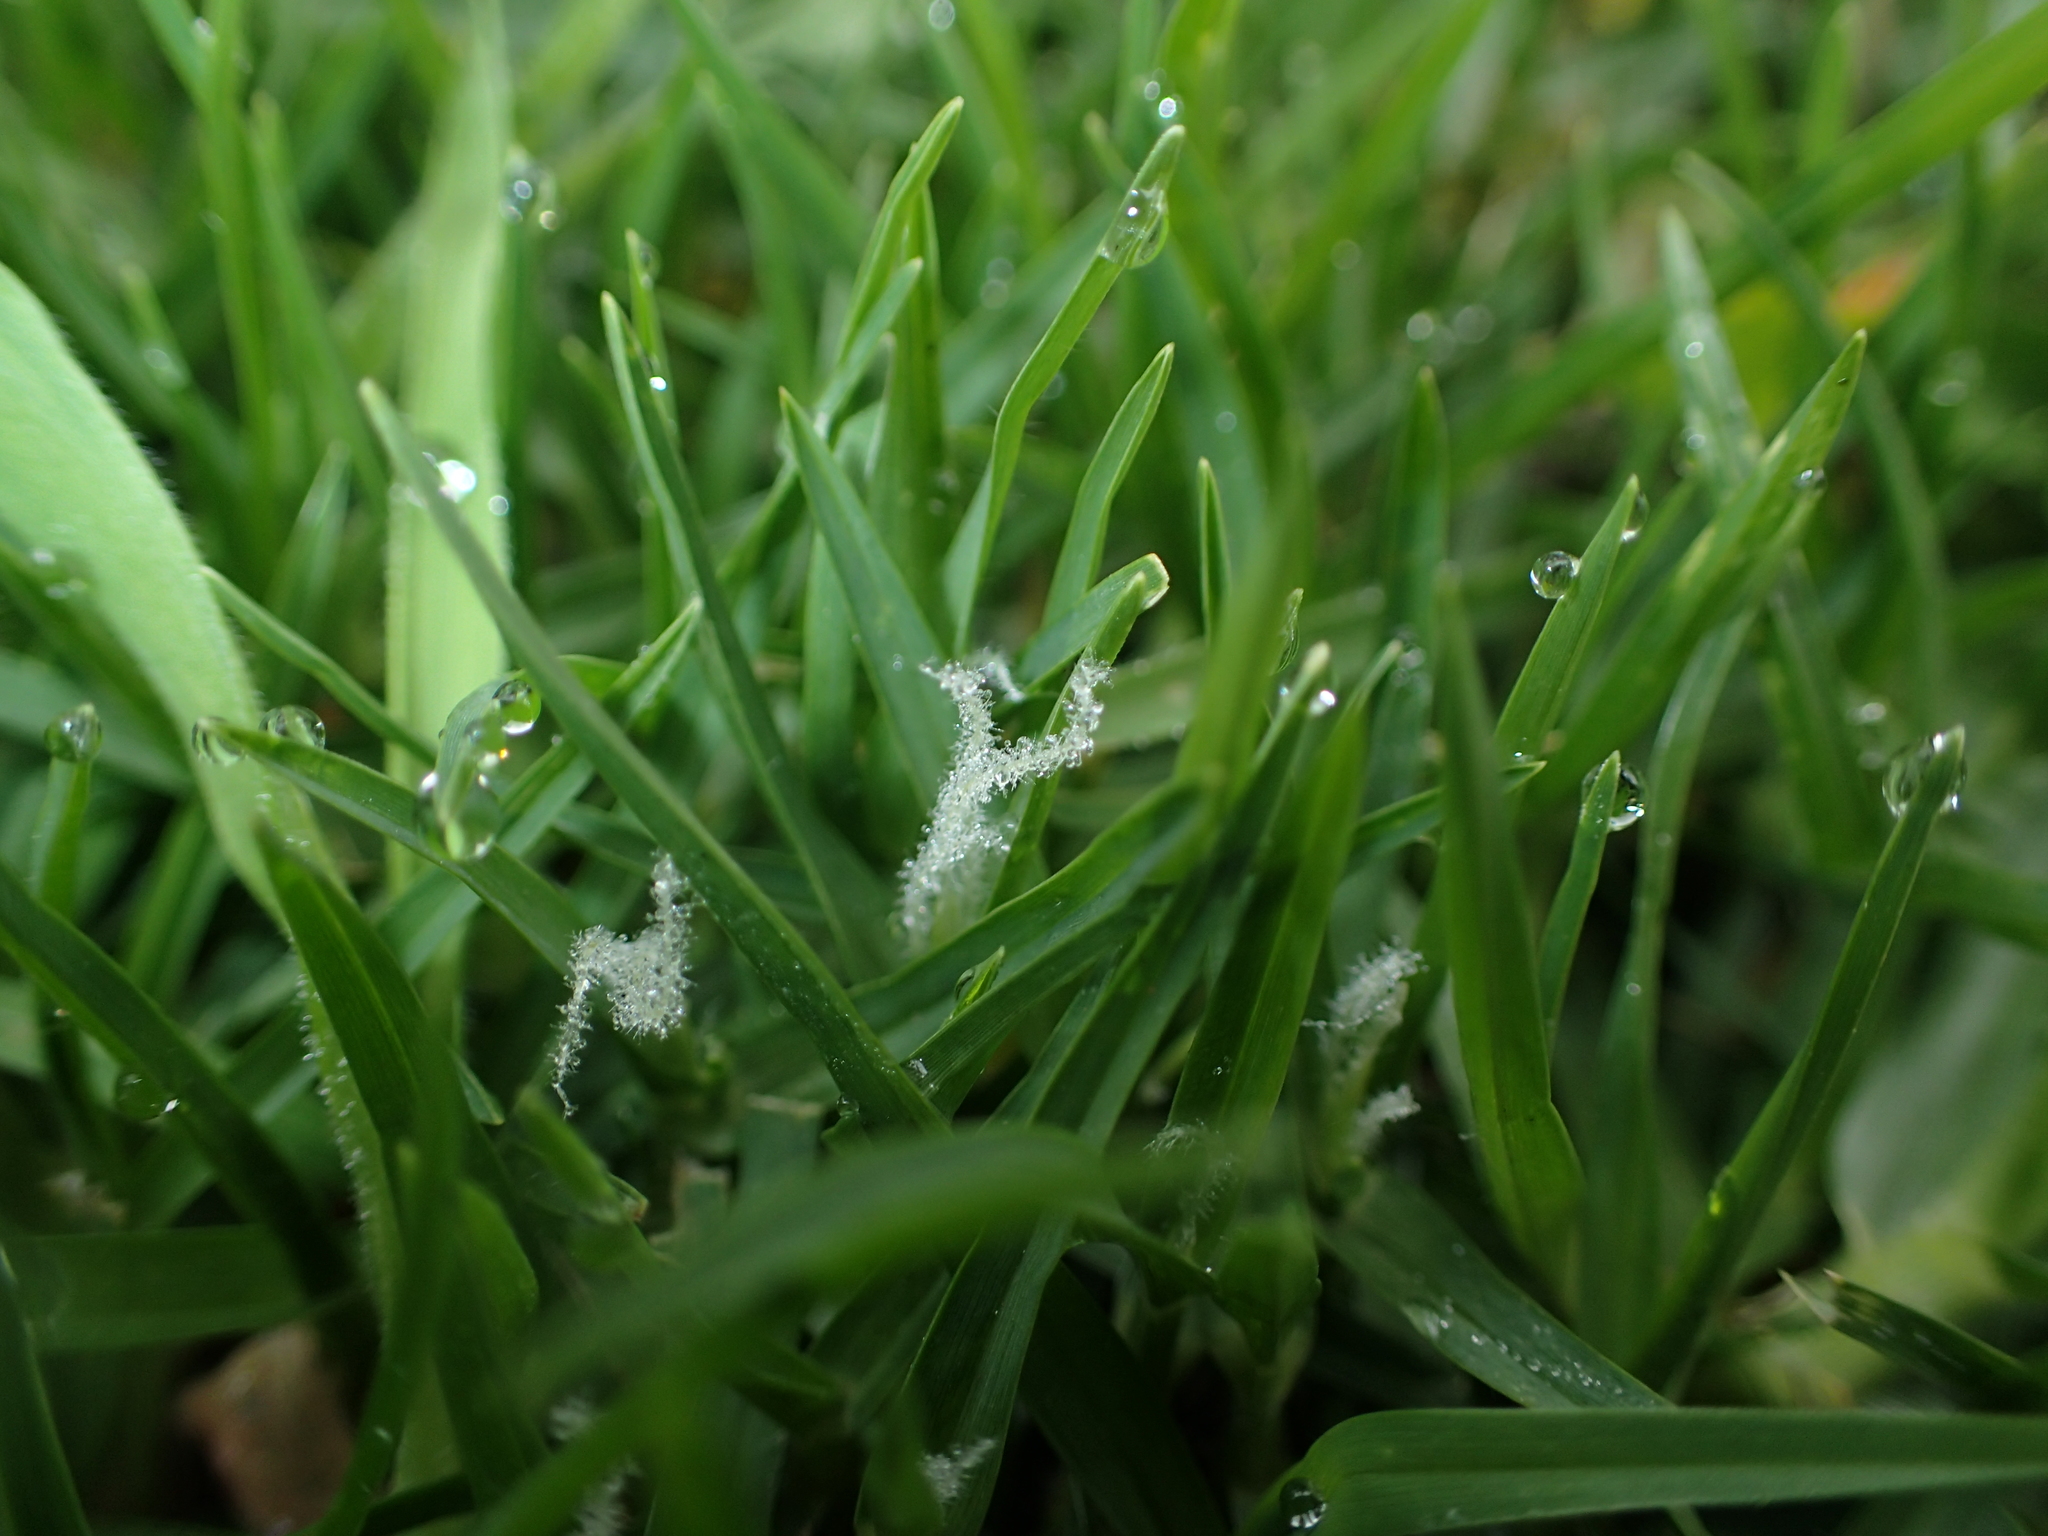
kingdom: Plantae
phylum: Tracheophyta
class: Liliopsida
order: Poales
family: Poaceae
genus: Cenchrus
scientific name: Cenchrus clandestinus
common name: Kikuyugrass
